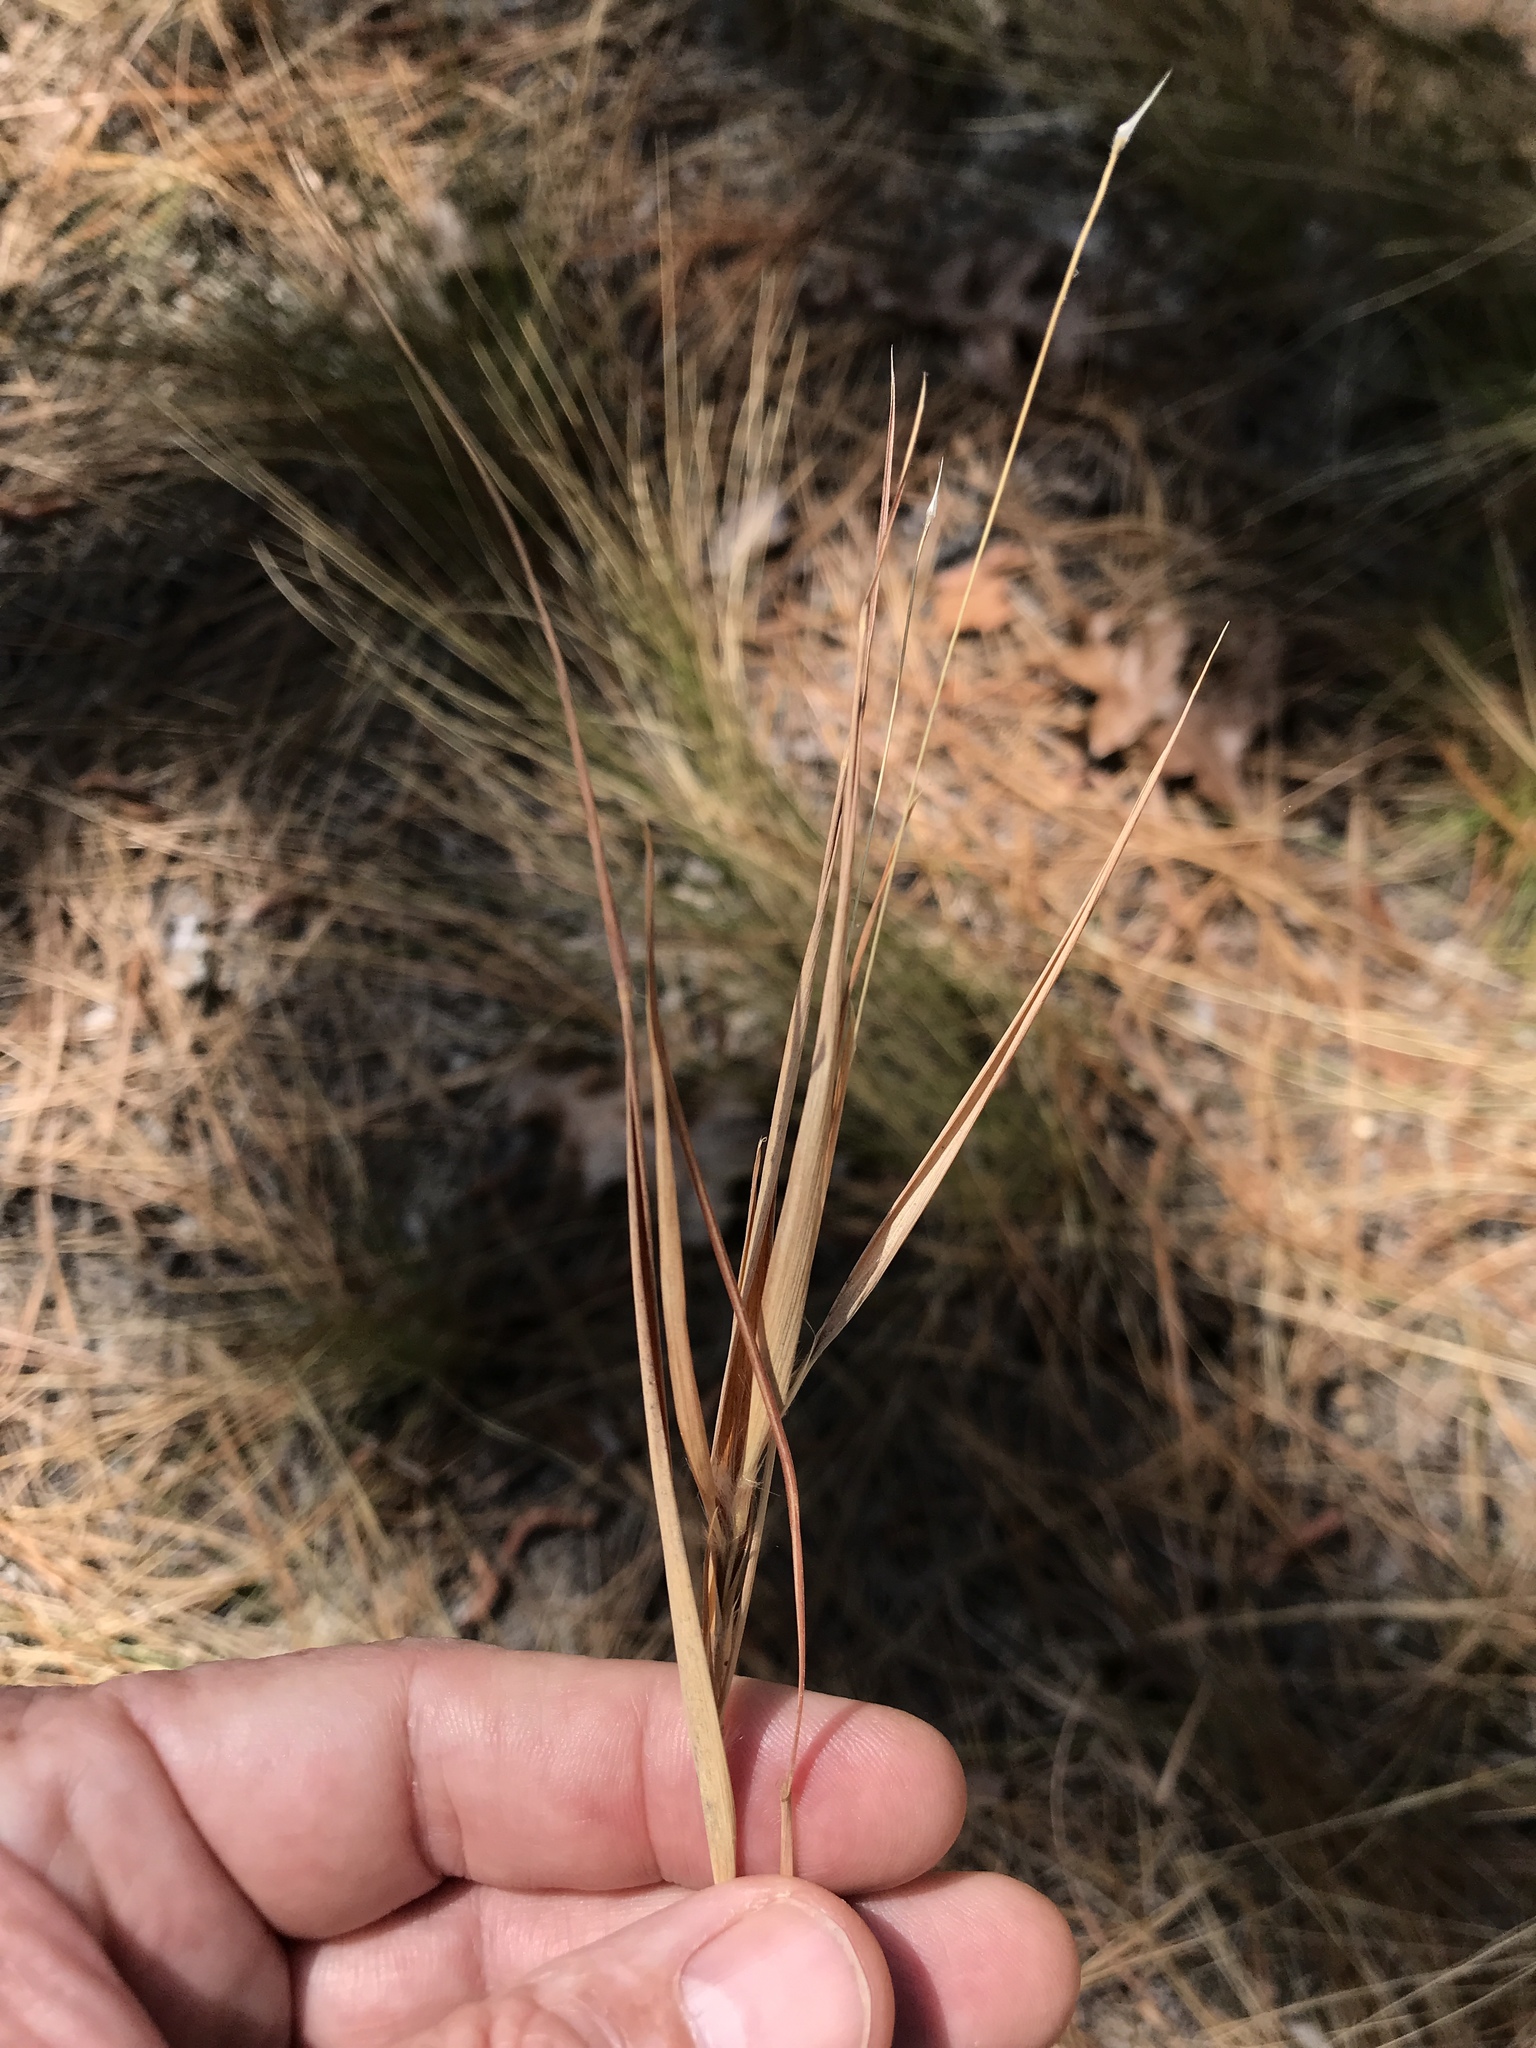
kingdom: Plantae
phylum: Tracheophyta
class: Liliopsida
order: Poales
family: Poaceae
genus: Andropogon
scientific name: Andropogon gyrans
